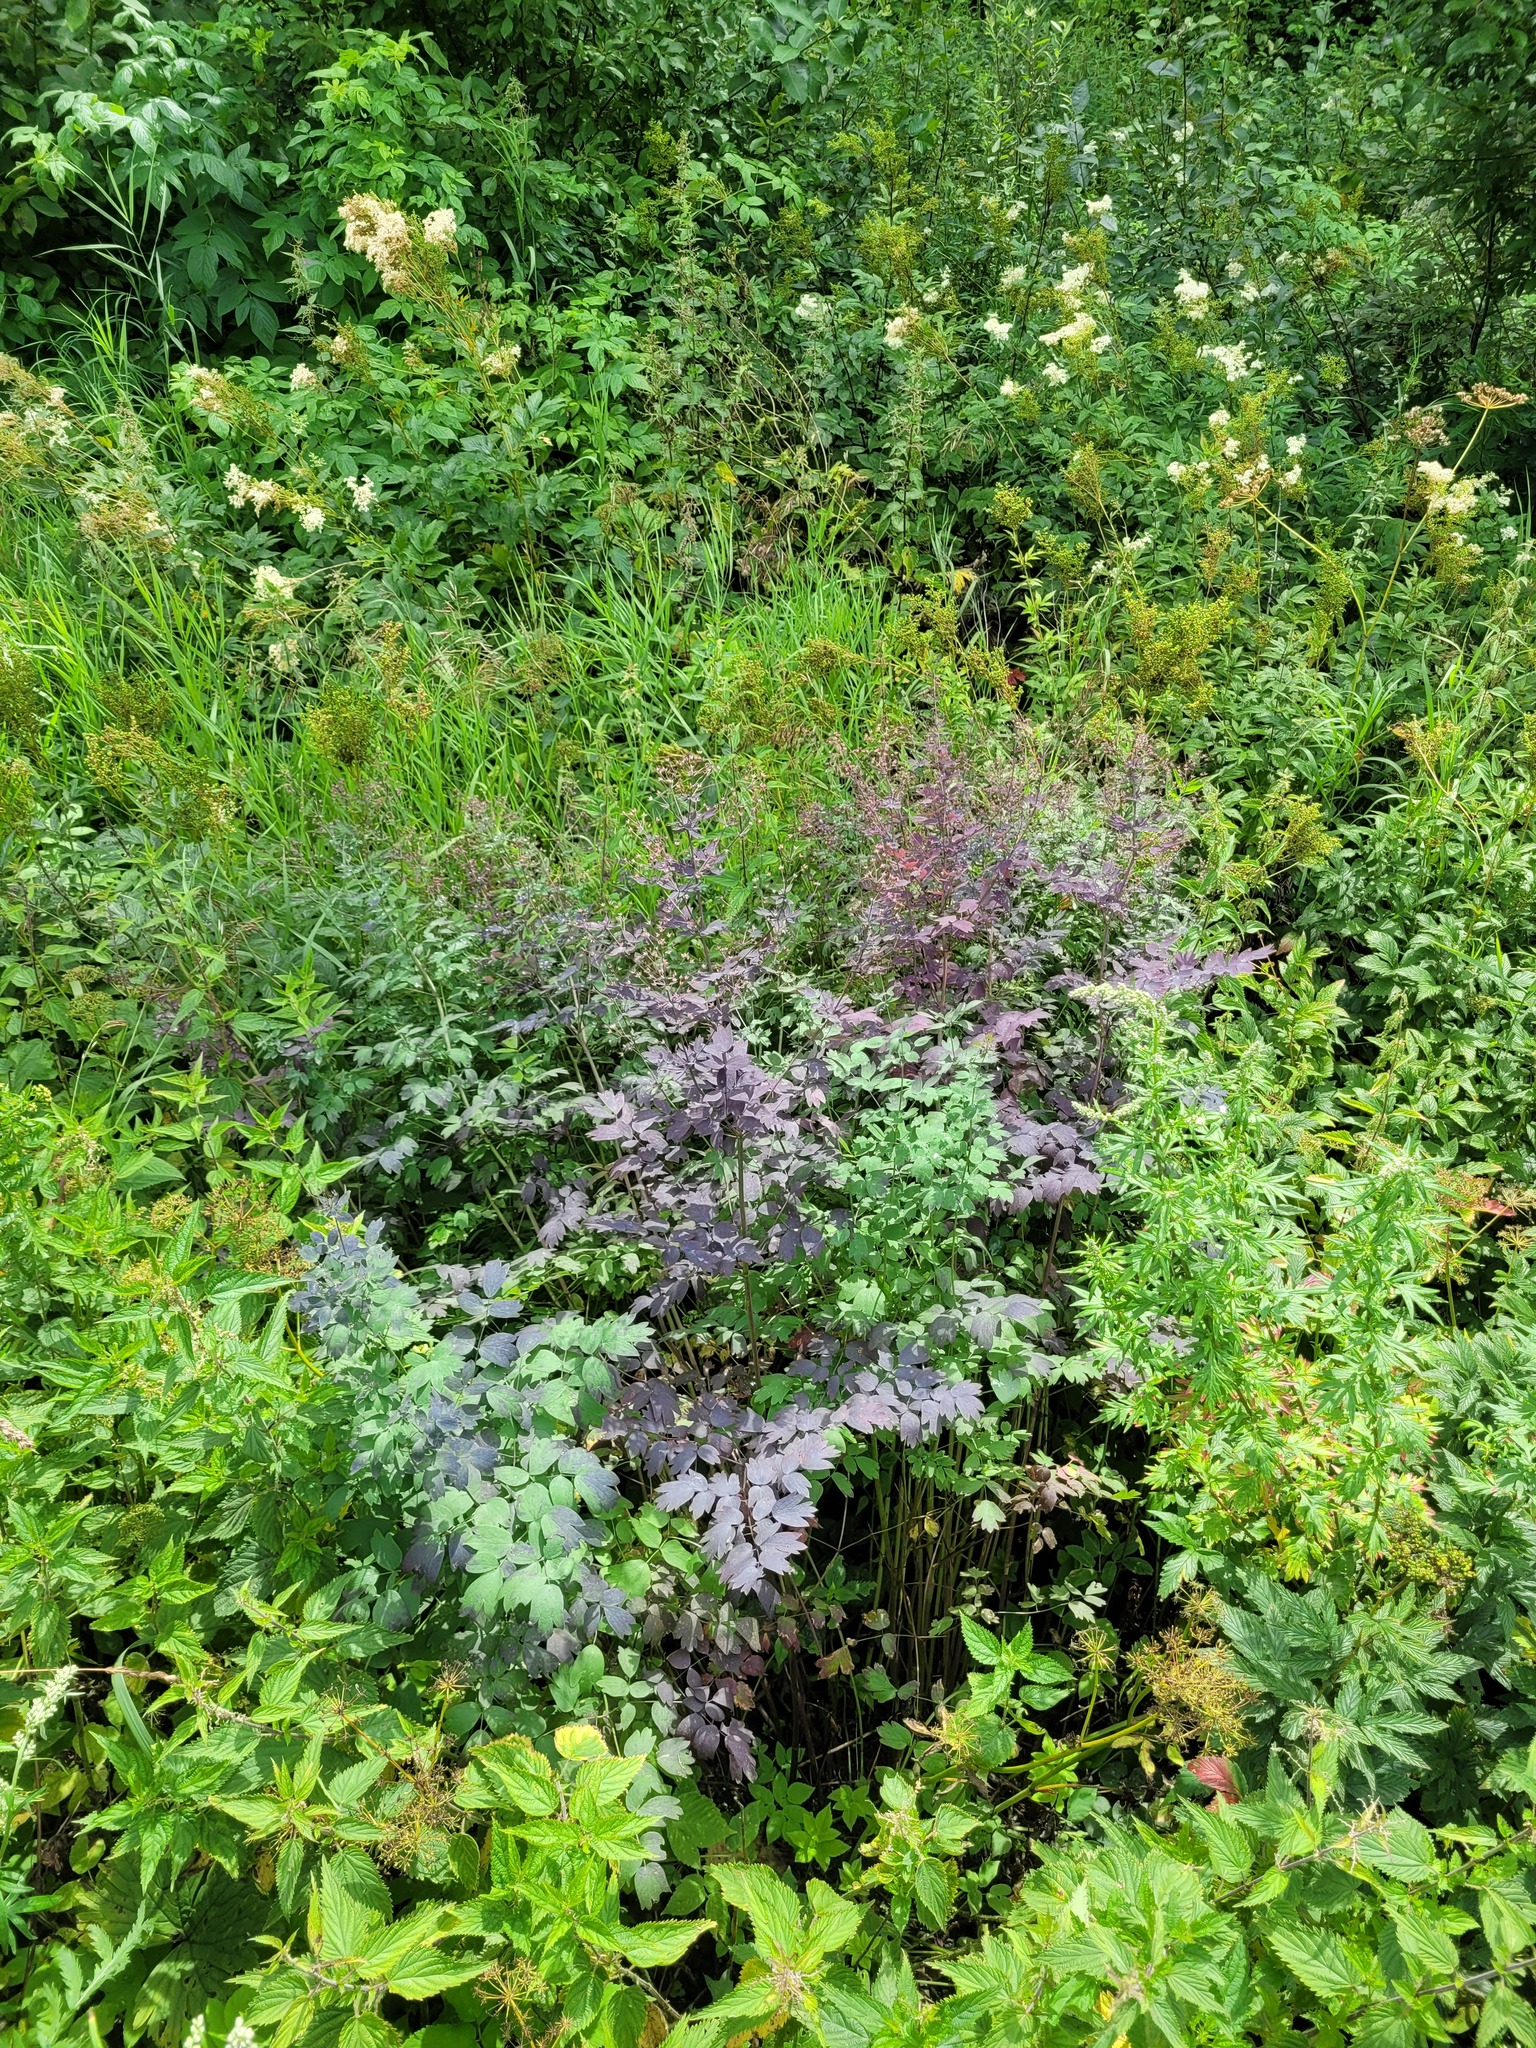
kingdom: Plantae
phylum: Tracheophyta
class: Magnoliopsida
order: Ranunculales
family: Ranunculaceae
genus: Thalictrum
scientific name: Thalictrum flavum
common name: Common meadow-rue
